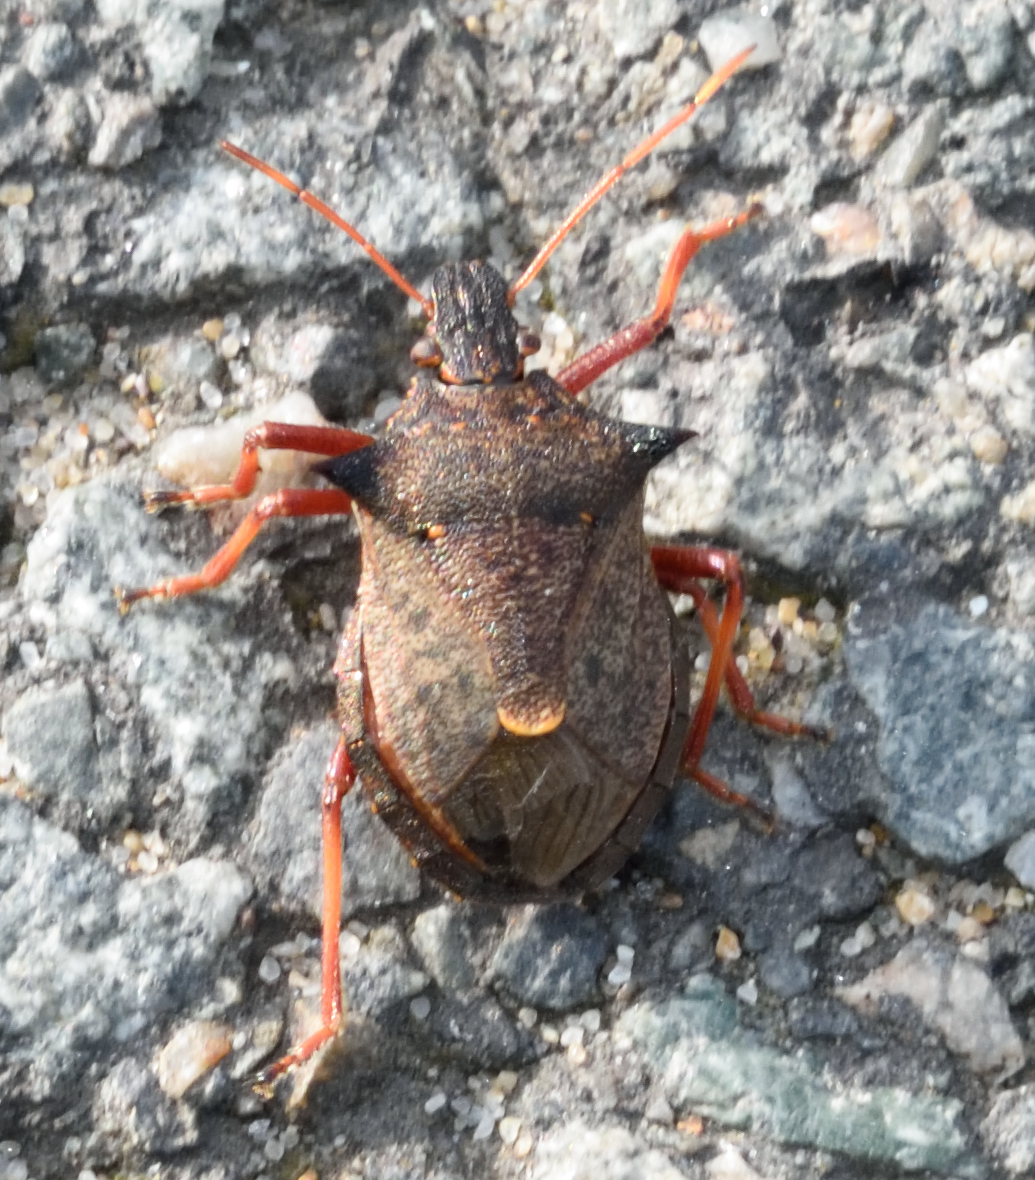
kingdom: Animalia
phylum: Arthropoda
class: Insecta
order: Hemiptera
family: Pentatomidae
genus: Picromerus
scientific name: Picromerus bidens
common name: Spiked shieldbug
